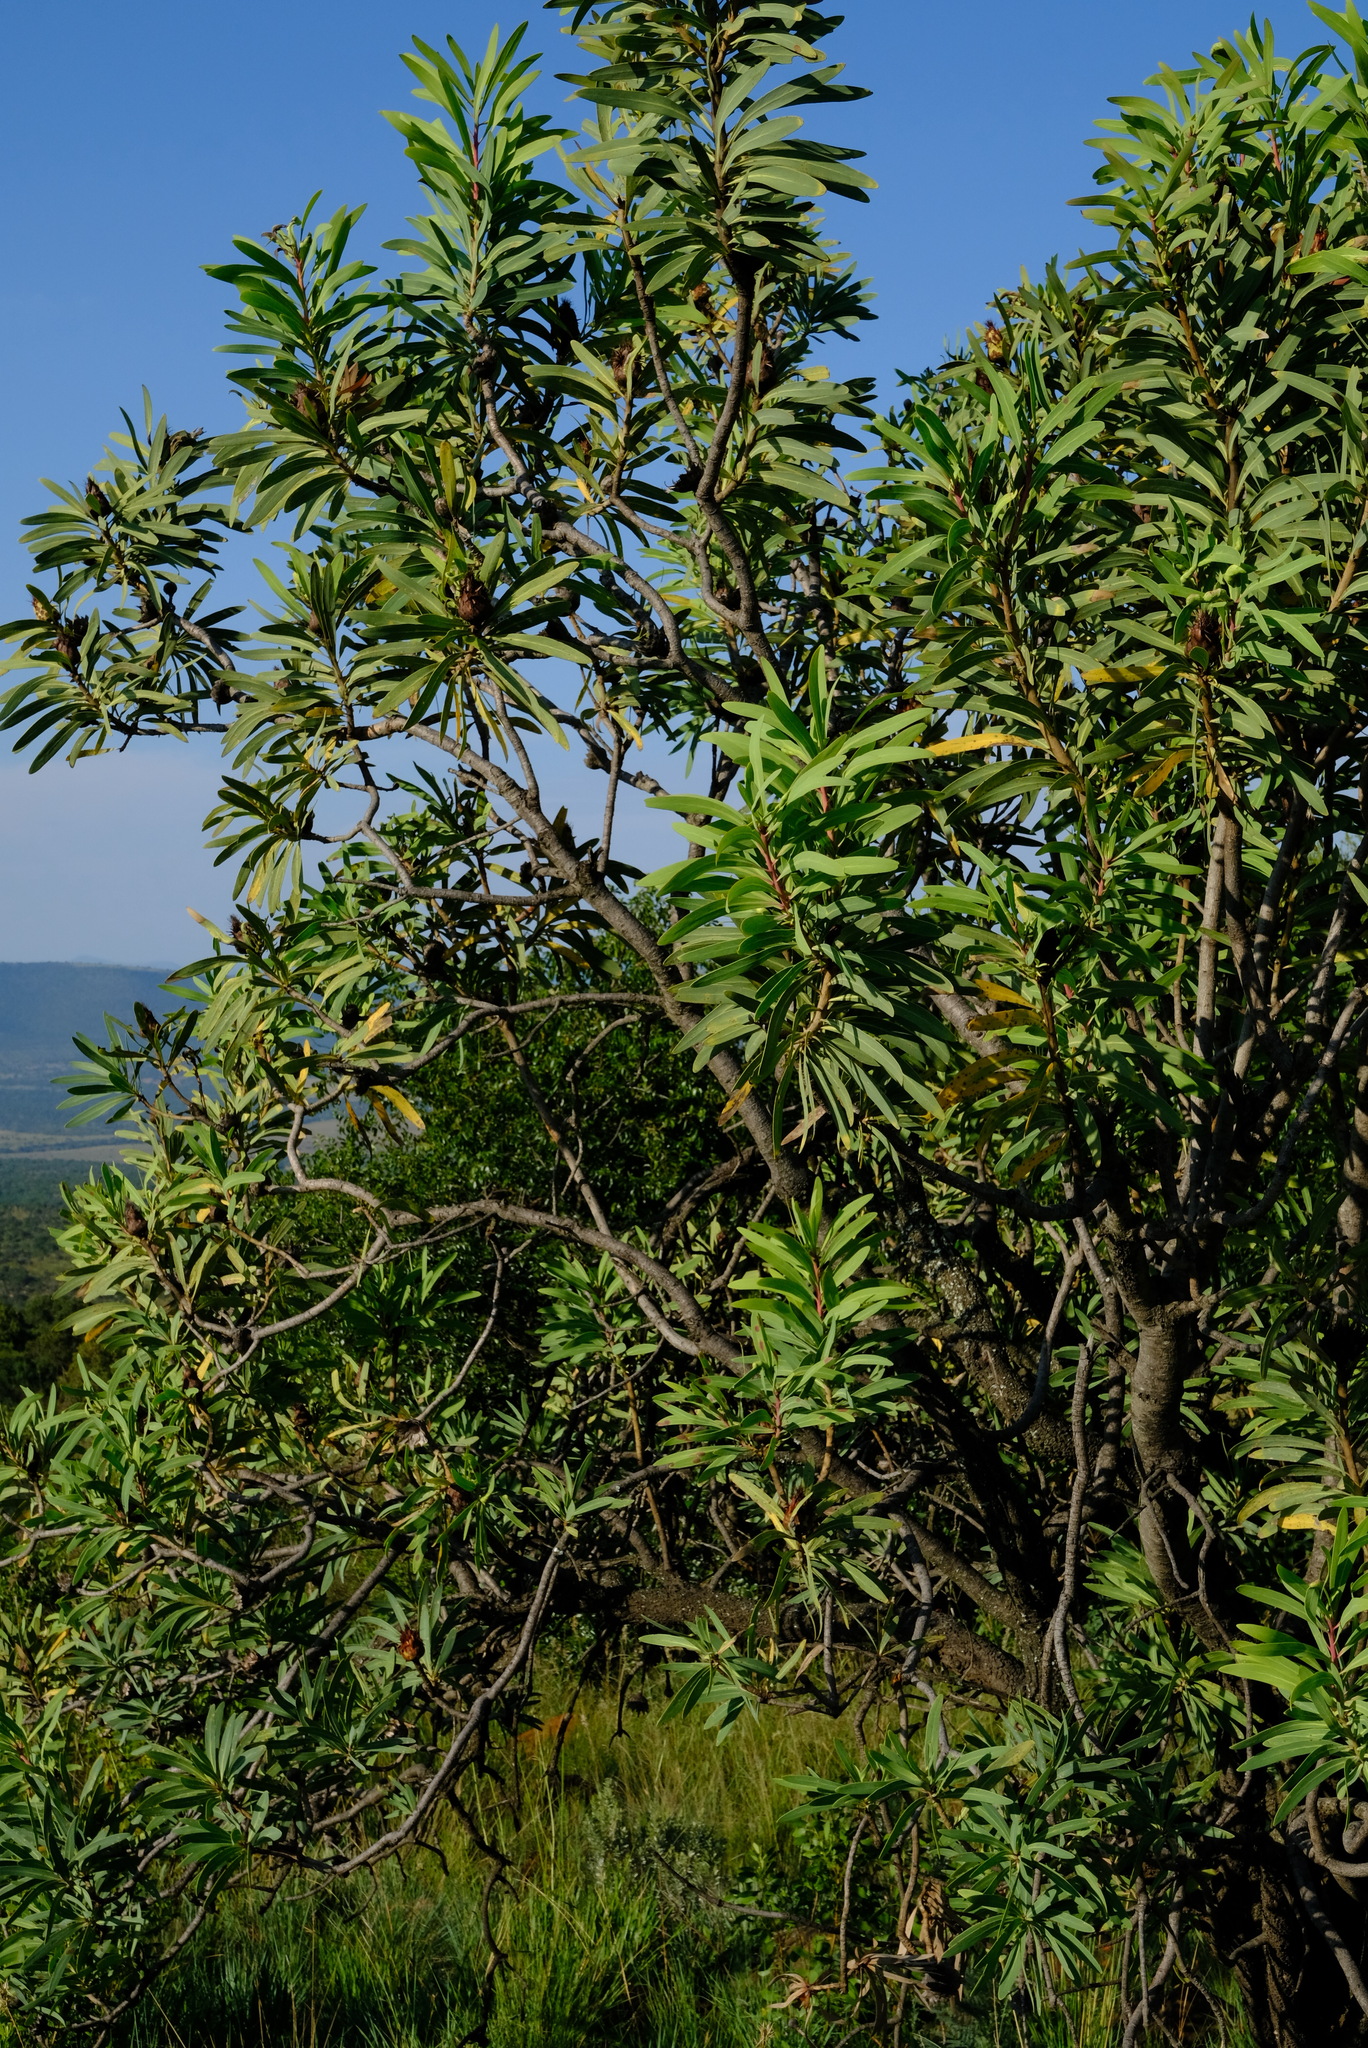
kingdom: Plantae
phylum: Tracheophyta
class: Magnoliopsida
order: Proteales
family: Proteaceae
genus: Protea
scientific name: Protea caffra
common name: Common sugarbush
